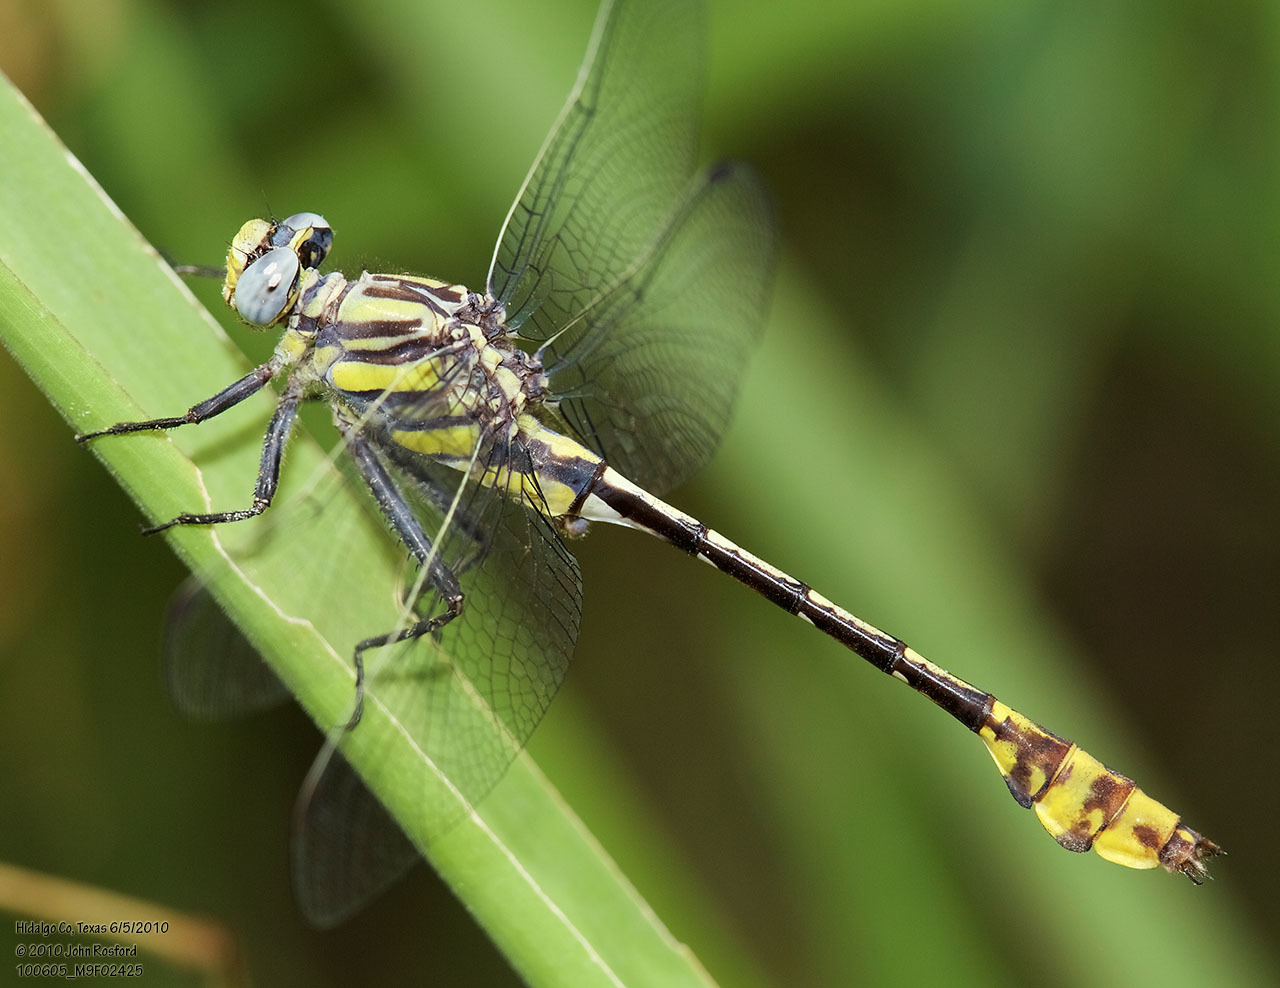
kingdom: Animalia
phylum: Arthropoda
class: Insecta
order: Odonata
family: Gomphidae
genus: Gomphurus
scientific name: Gomphurus gonzalezi
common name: Tamaulipan clubtail
